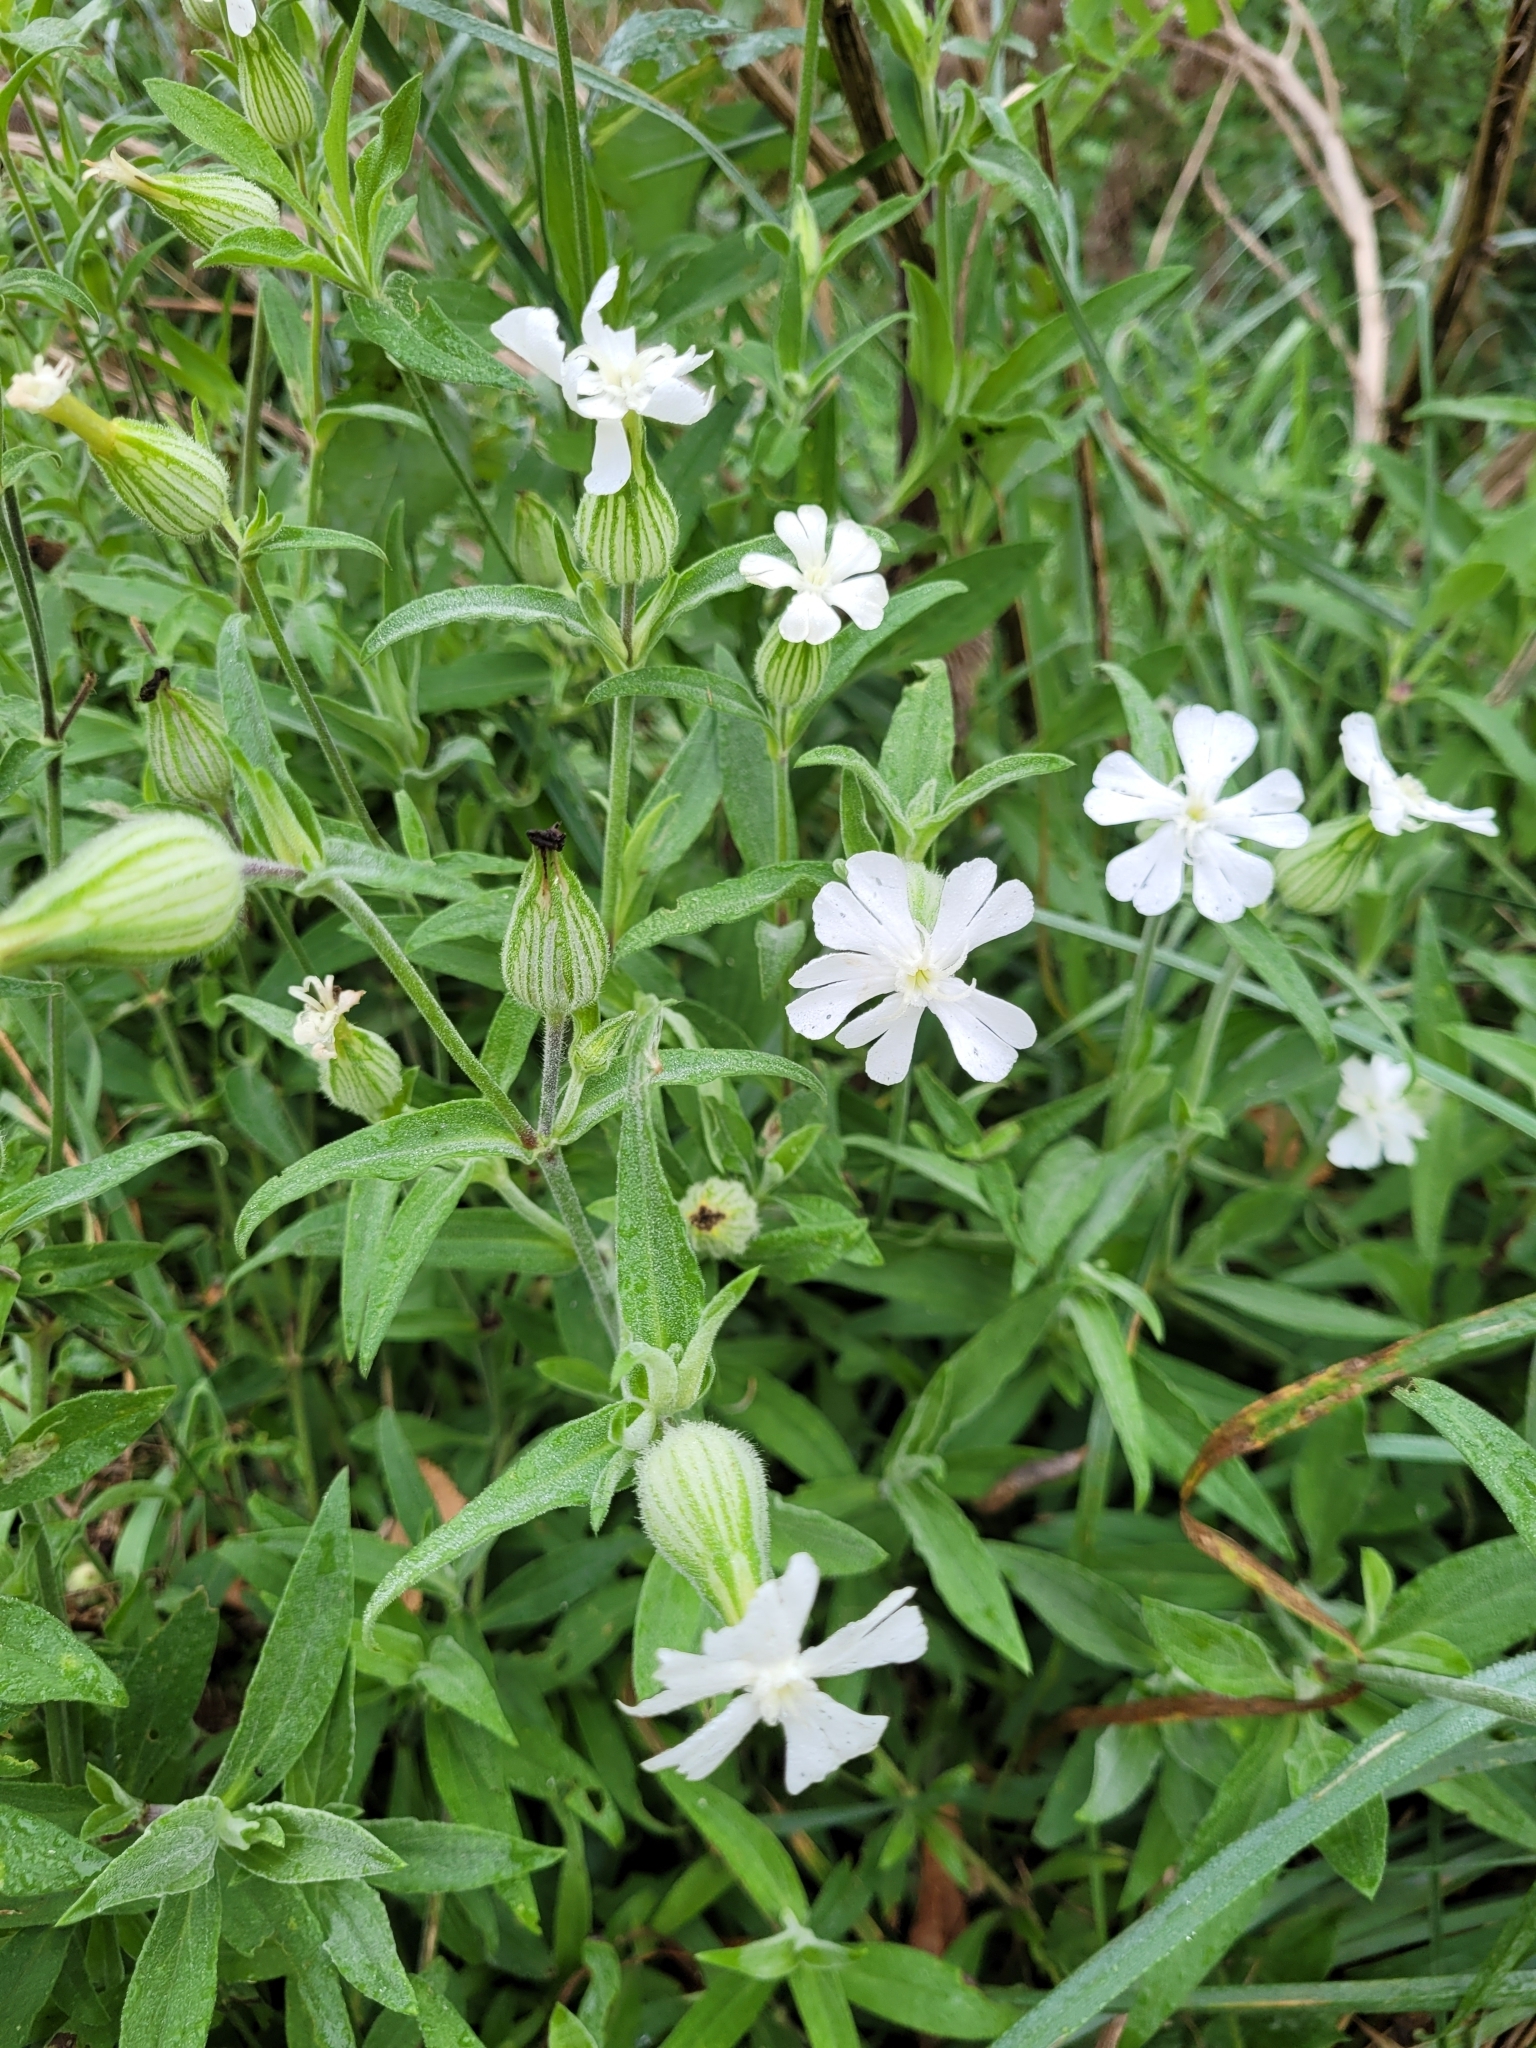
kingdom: Plantae
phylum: Tracheophyta
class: Magnoliopsida
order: Caryophyllales
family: Caryophyllaceae
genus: Silene
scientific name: Silene latifolia
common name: White campion
